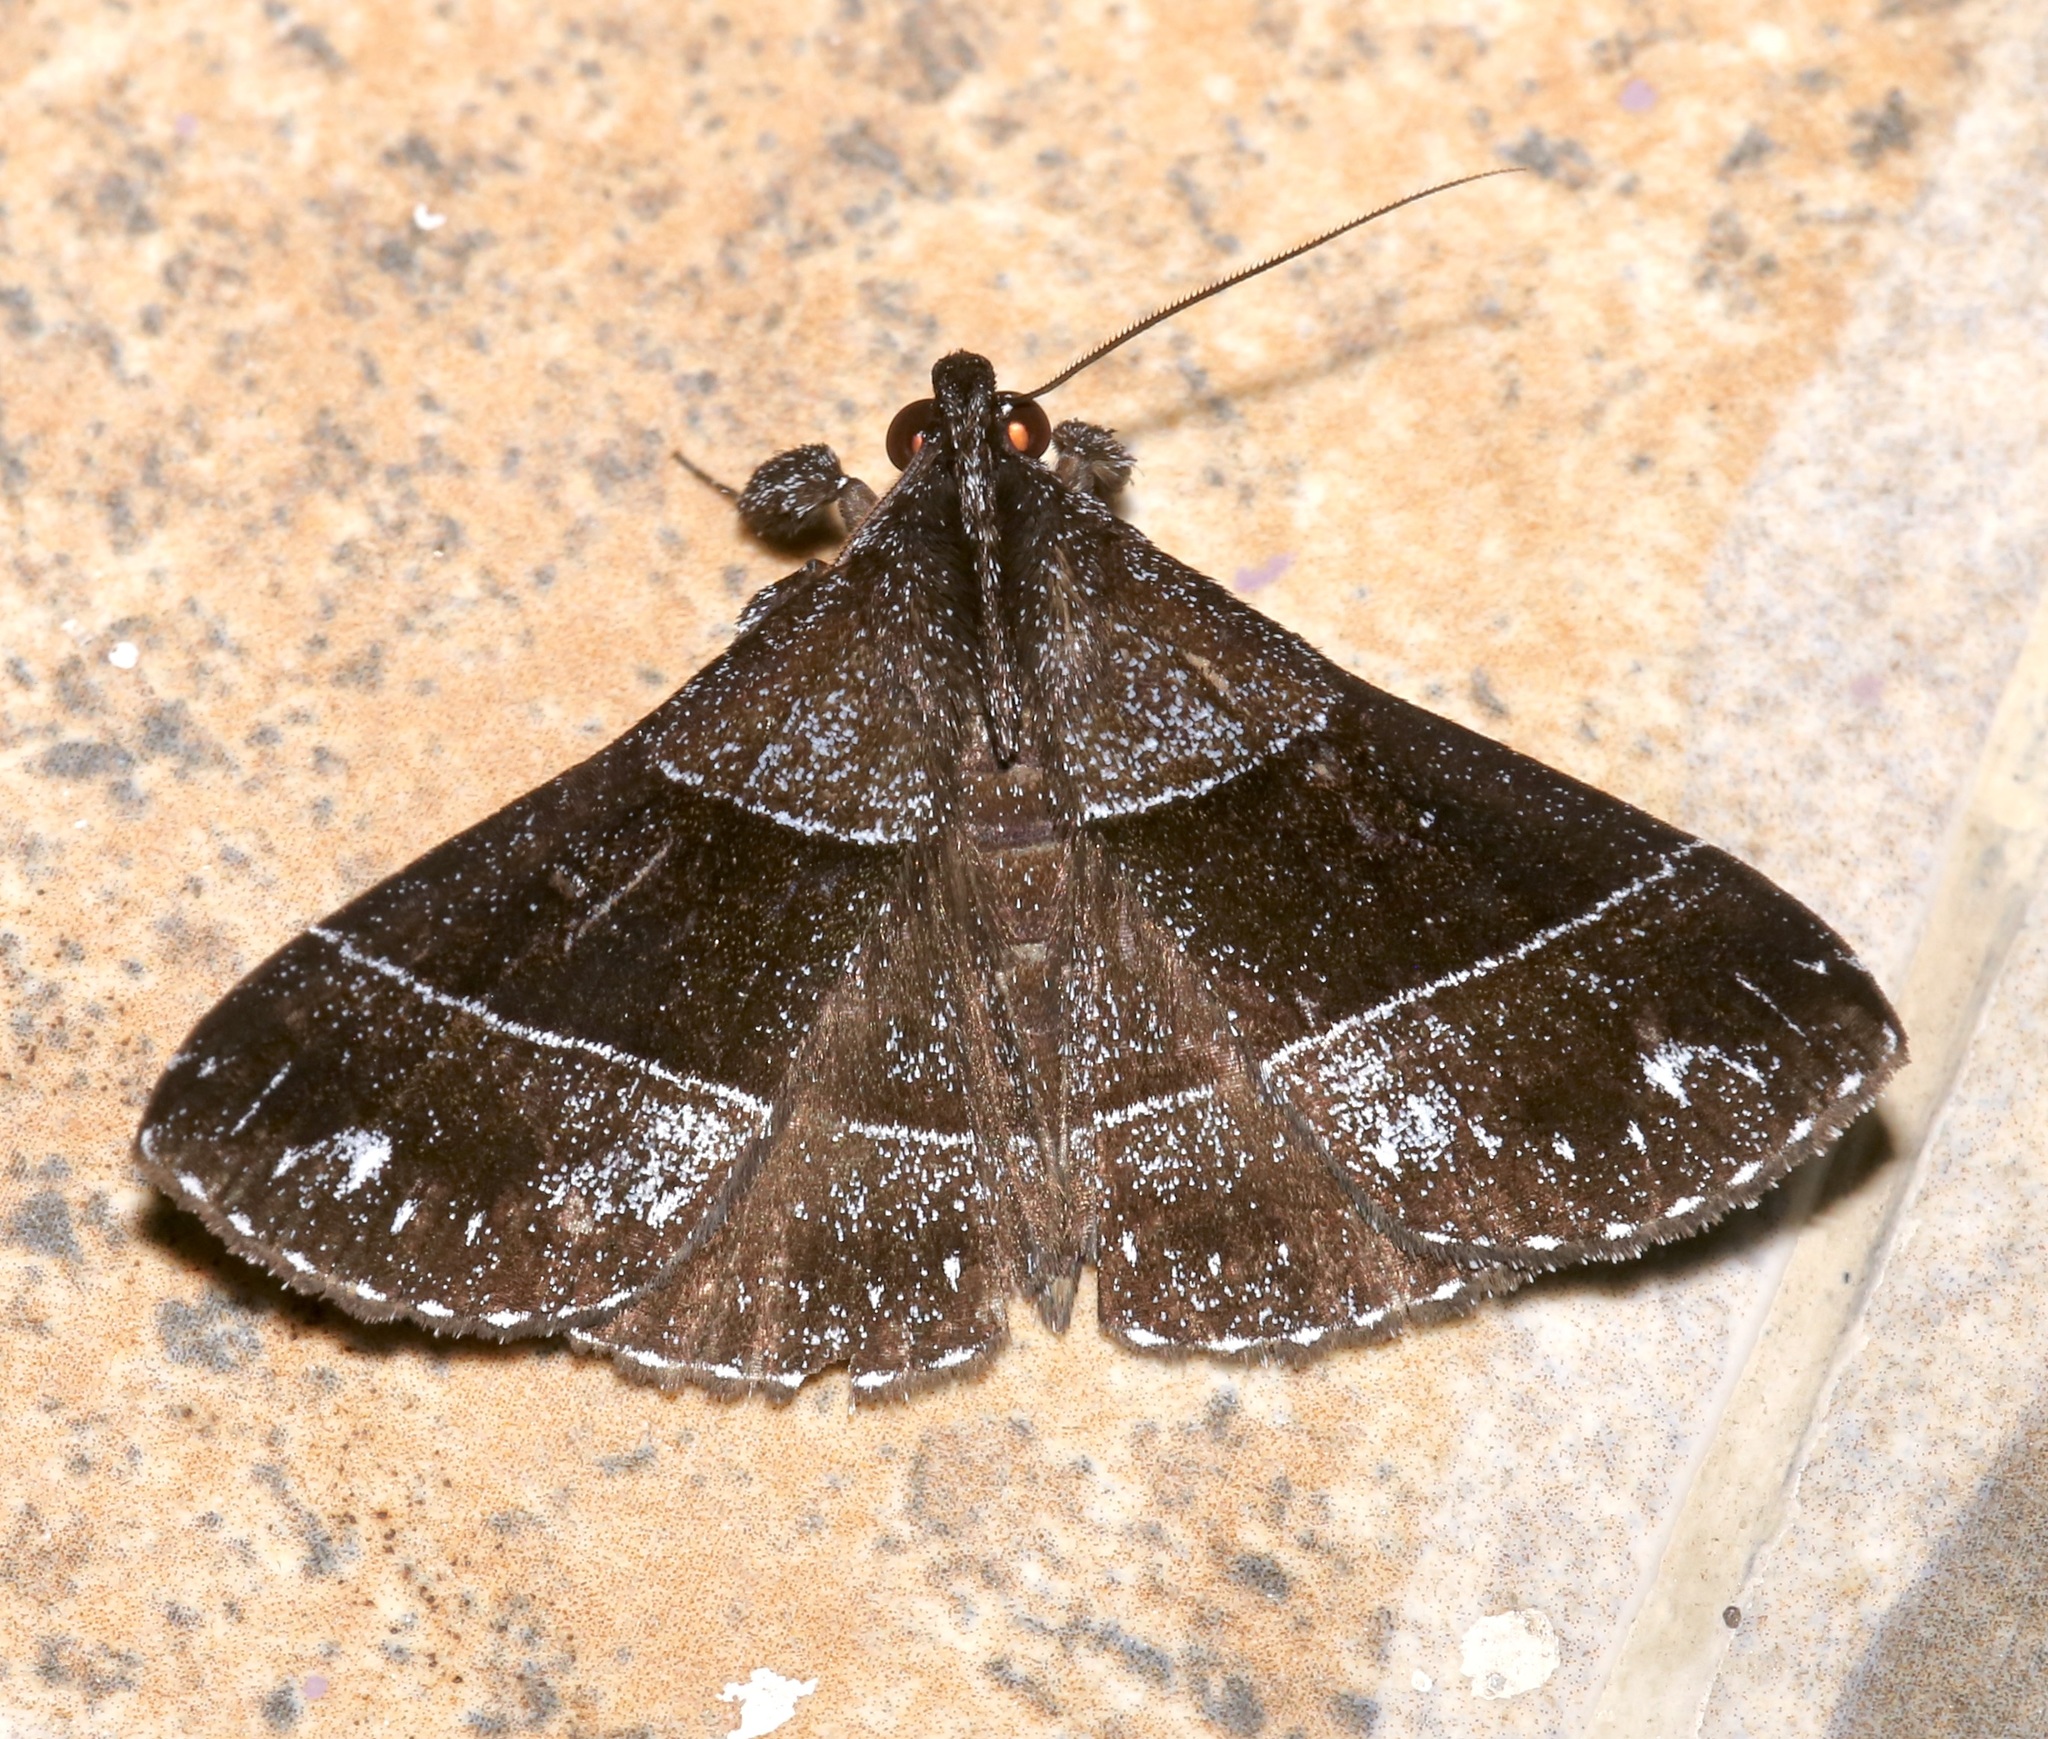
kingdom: Animalia
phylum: Arthropoda
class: Insecta
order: Lepidoptera
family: Erebidae
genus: Rejectaria
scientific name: Rejectaria atrax
